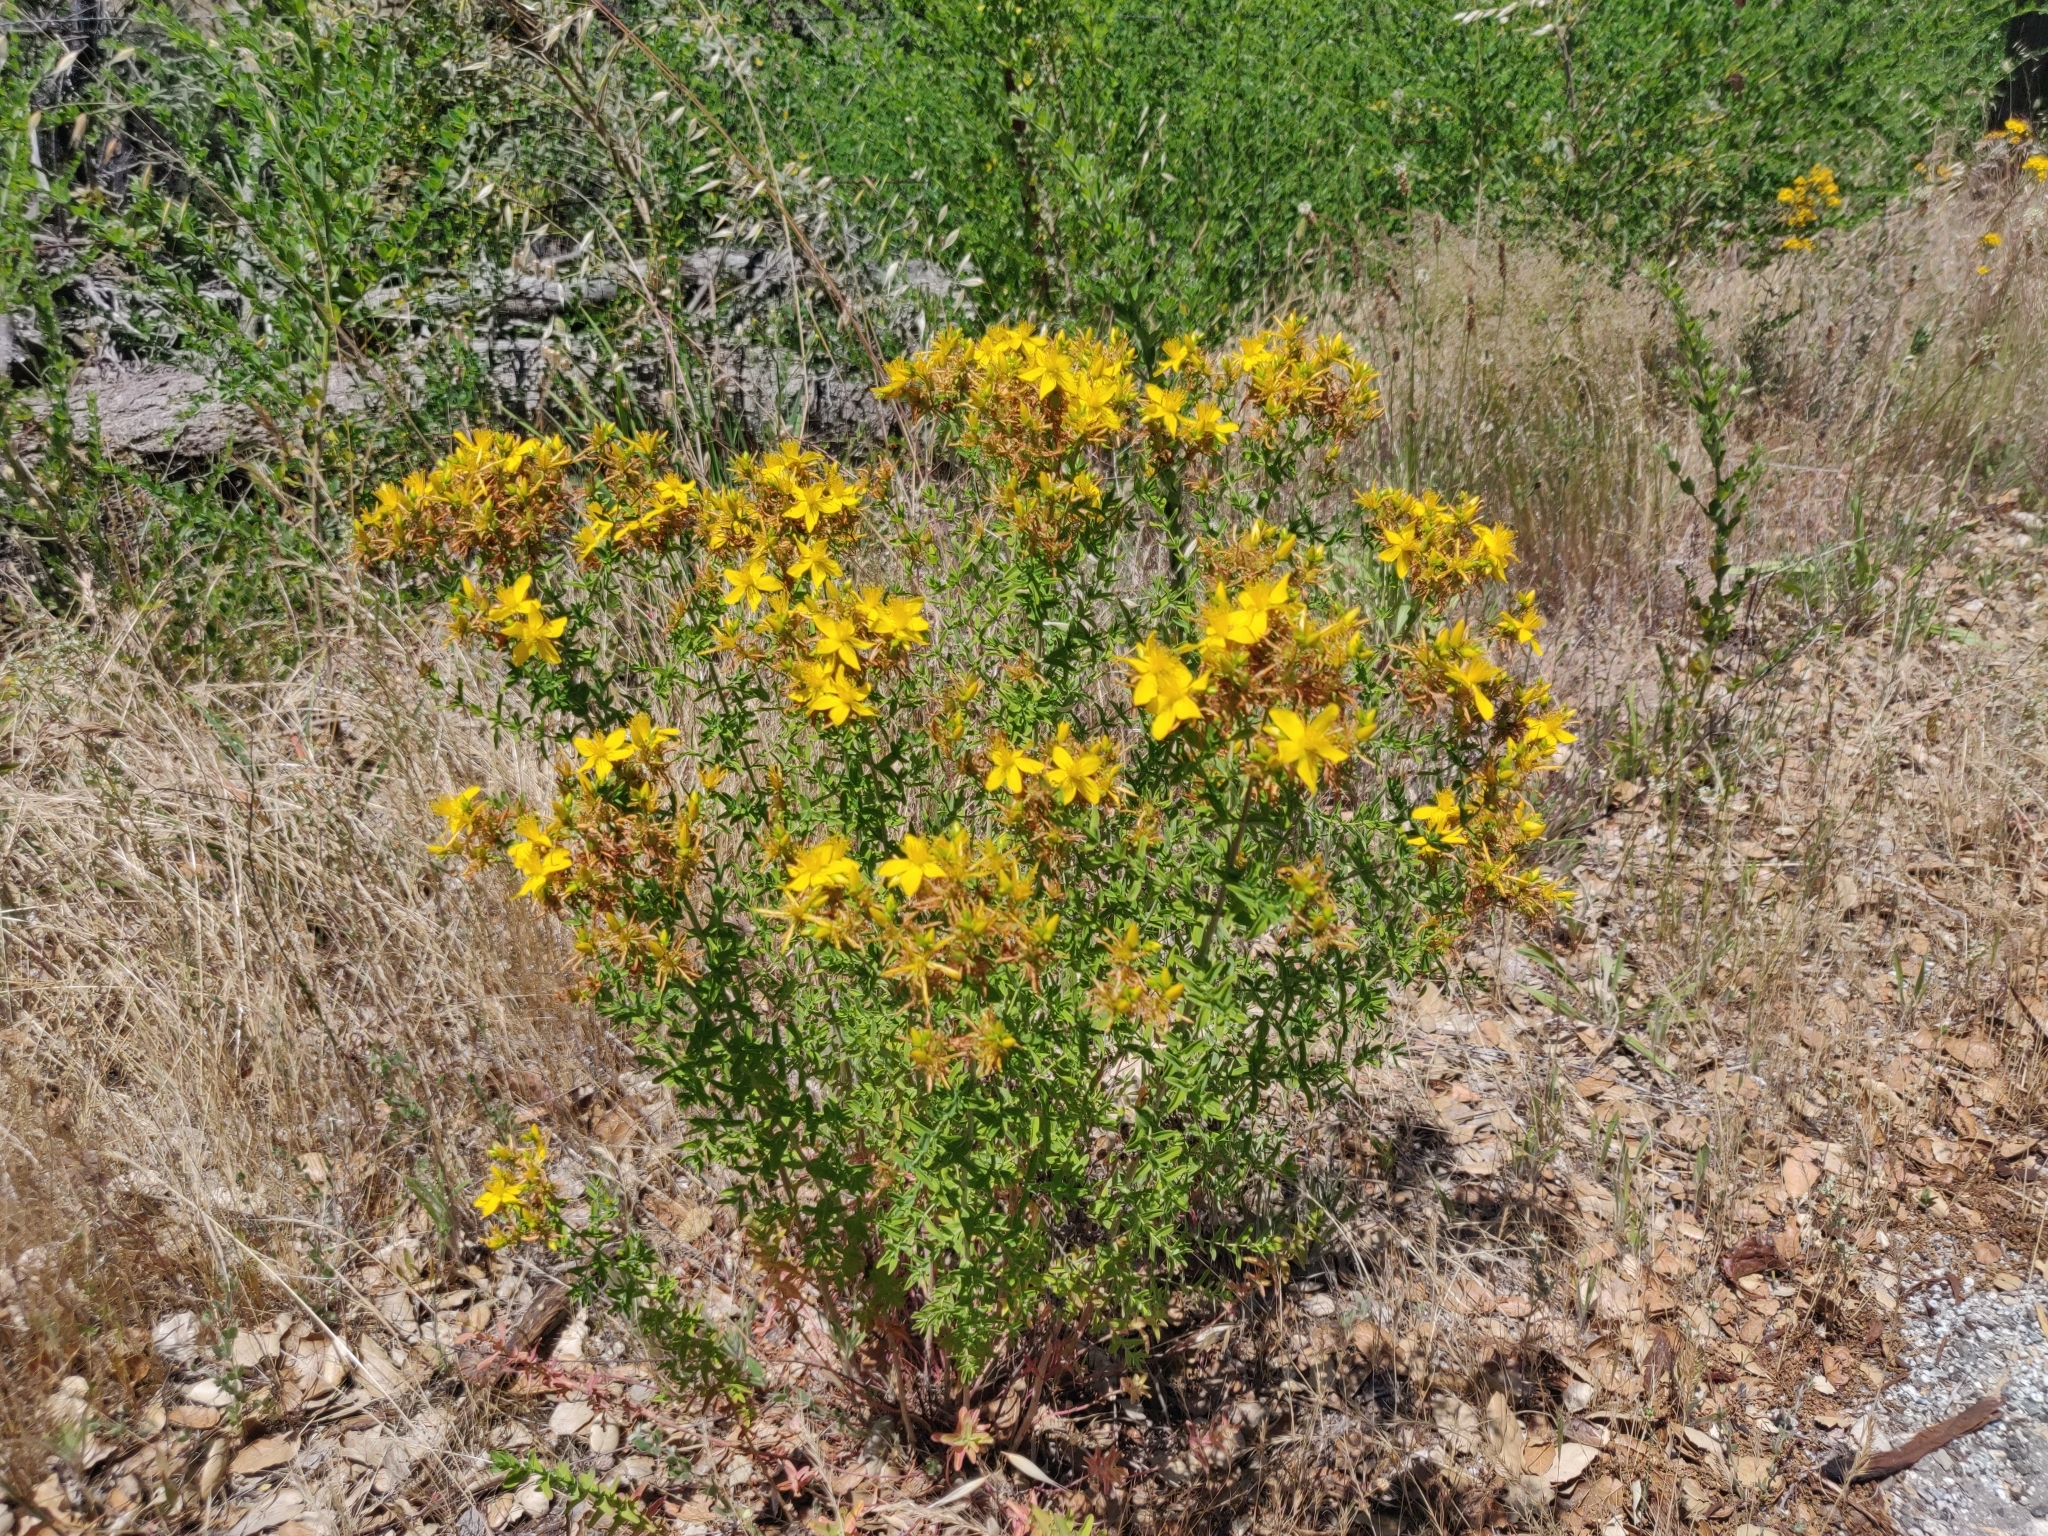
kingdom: Plantae
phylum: Tracheophyta
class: Magnoliopsida
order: Malpighiales
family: Hypericaceae
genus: Hypericum
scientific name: Hypericum perforatum
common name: Common st. johnswort
